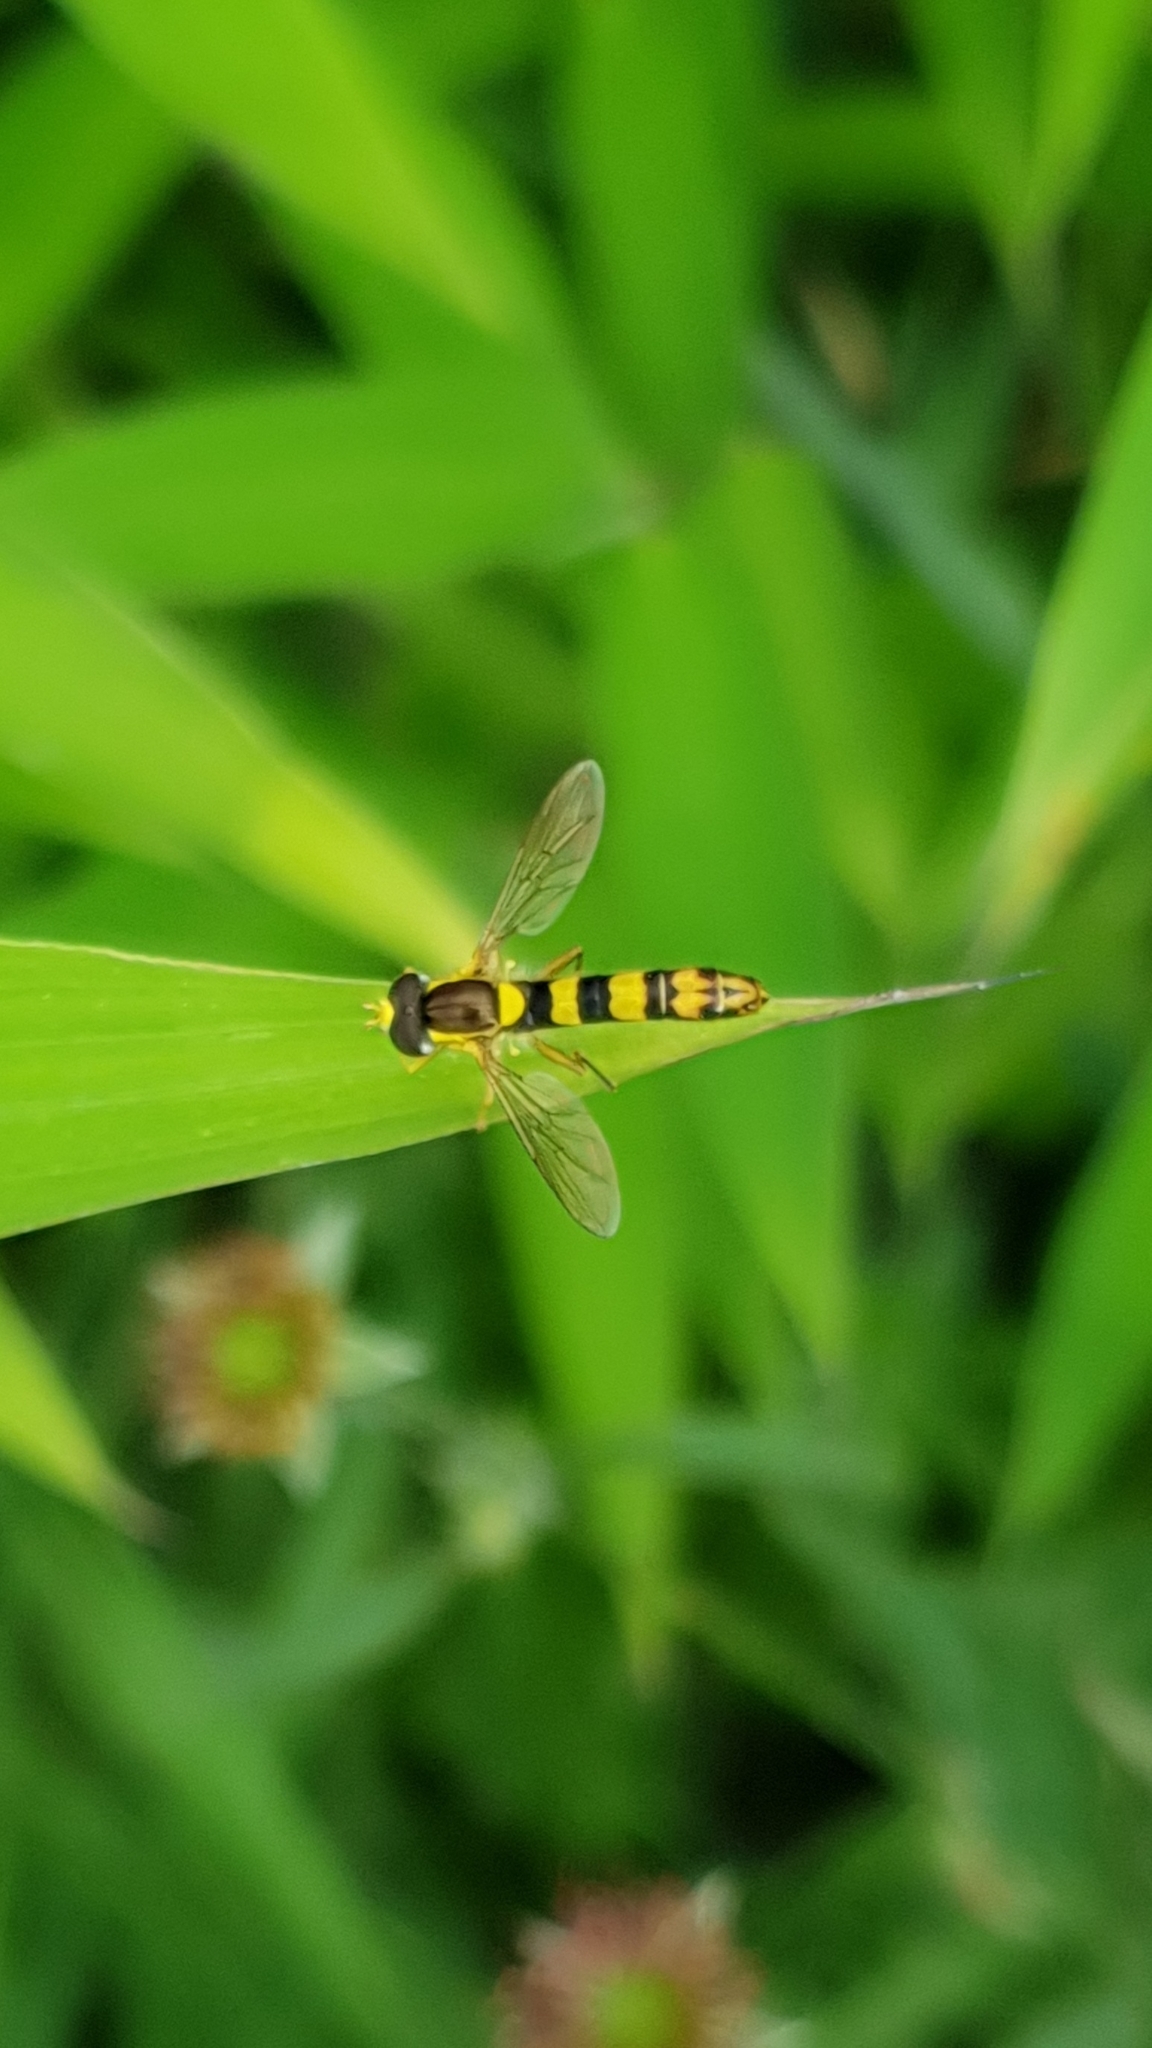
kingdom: Animalia
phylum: Arthropoda
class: Insecta
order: Diptera
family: Syrphidae
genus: Sphaerophoria
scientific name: Sphaerophoria scripta
